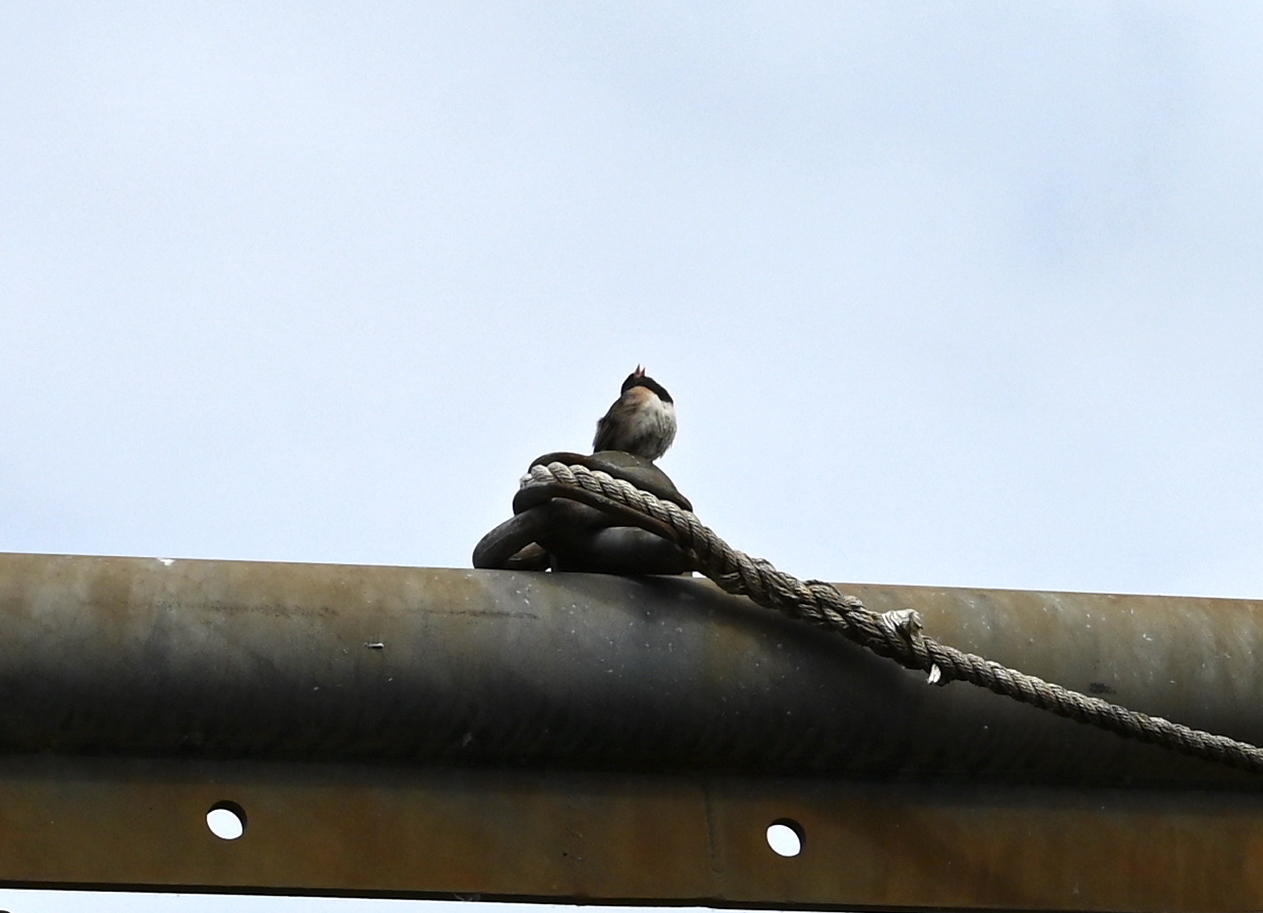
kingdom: Animalia
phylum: Chordata
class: Aves
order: Passeriformes
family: Passerellidae
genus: Junco
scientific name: Junco hyemalis
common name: Dark-eyed junco
